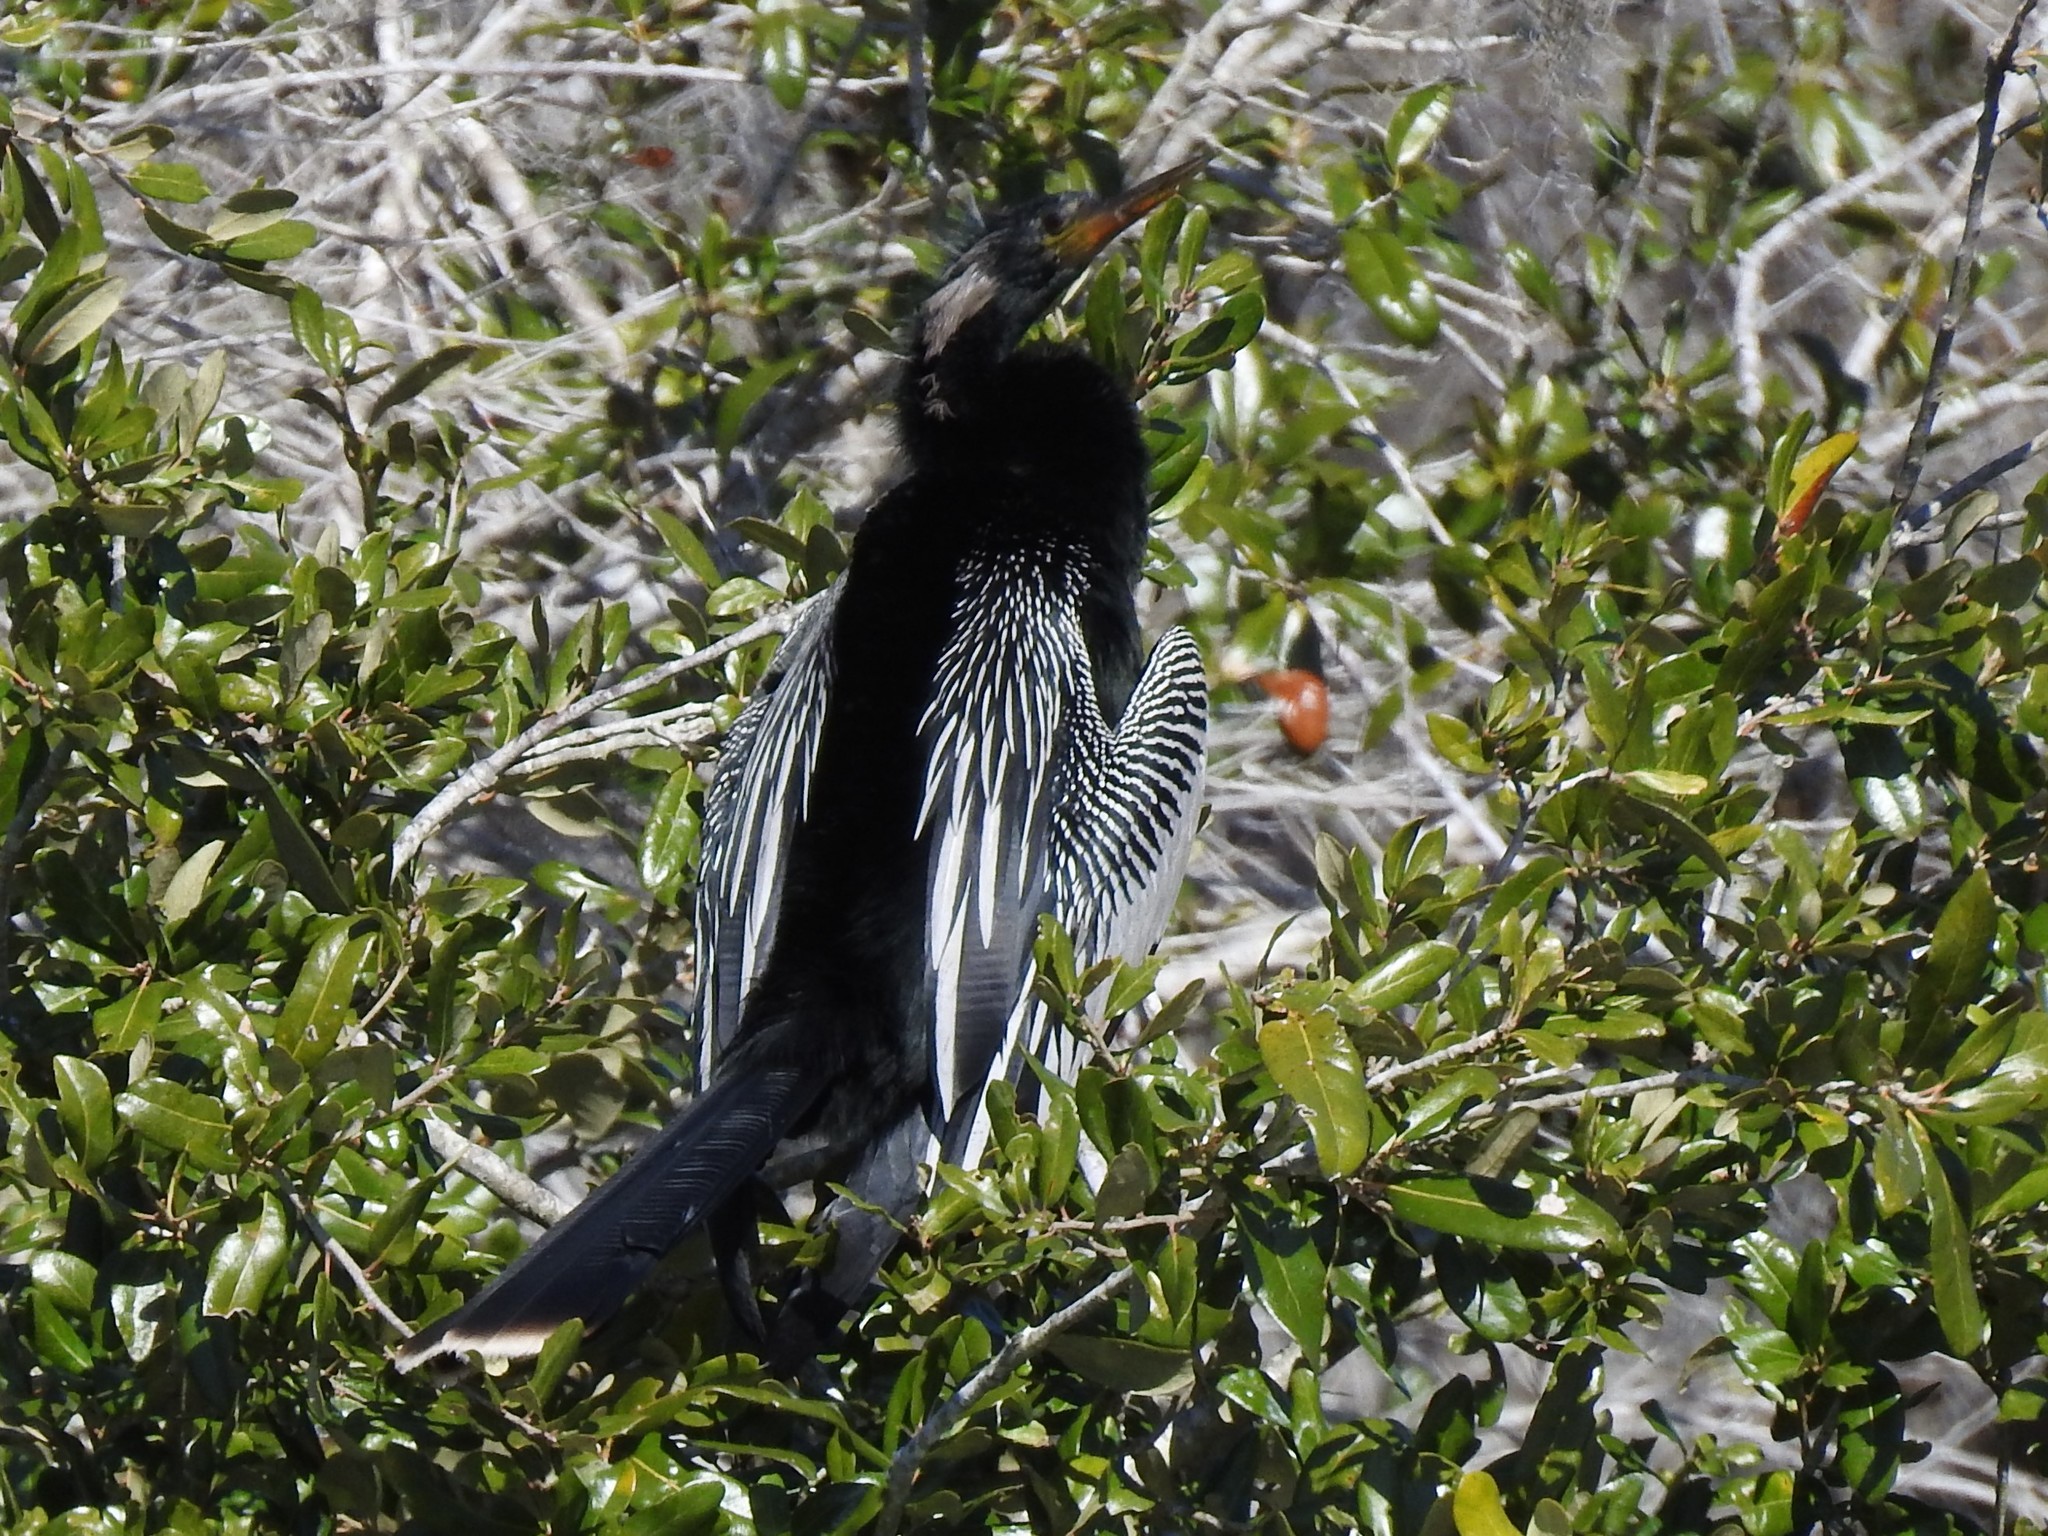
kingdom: Animalia
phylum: Chordata
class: Aves
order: Suliformes
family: Anhingidae
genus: Anhinga
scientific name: Anhinga anhinga
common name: Anhinga
